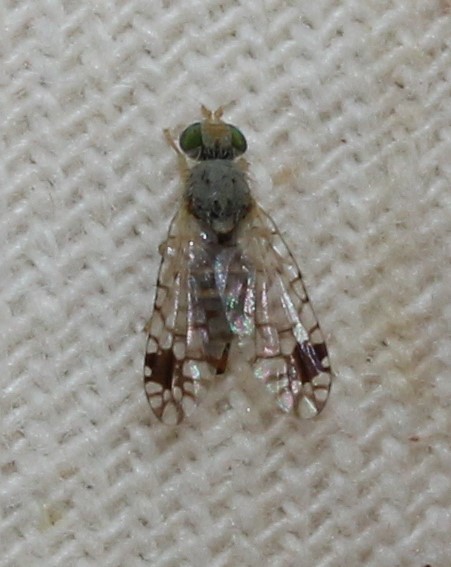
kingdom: Animalia
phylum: Arthropoda
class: Insecta
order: Diptera
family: Tephritidae
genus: Euarestoides
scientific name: Euarestoides acutangulus
